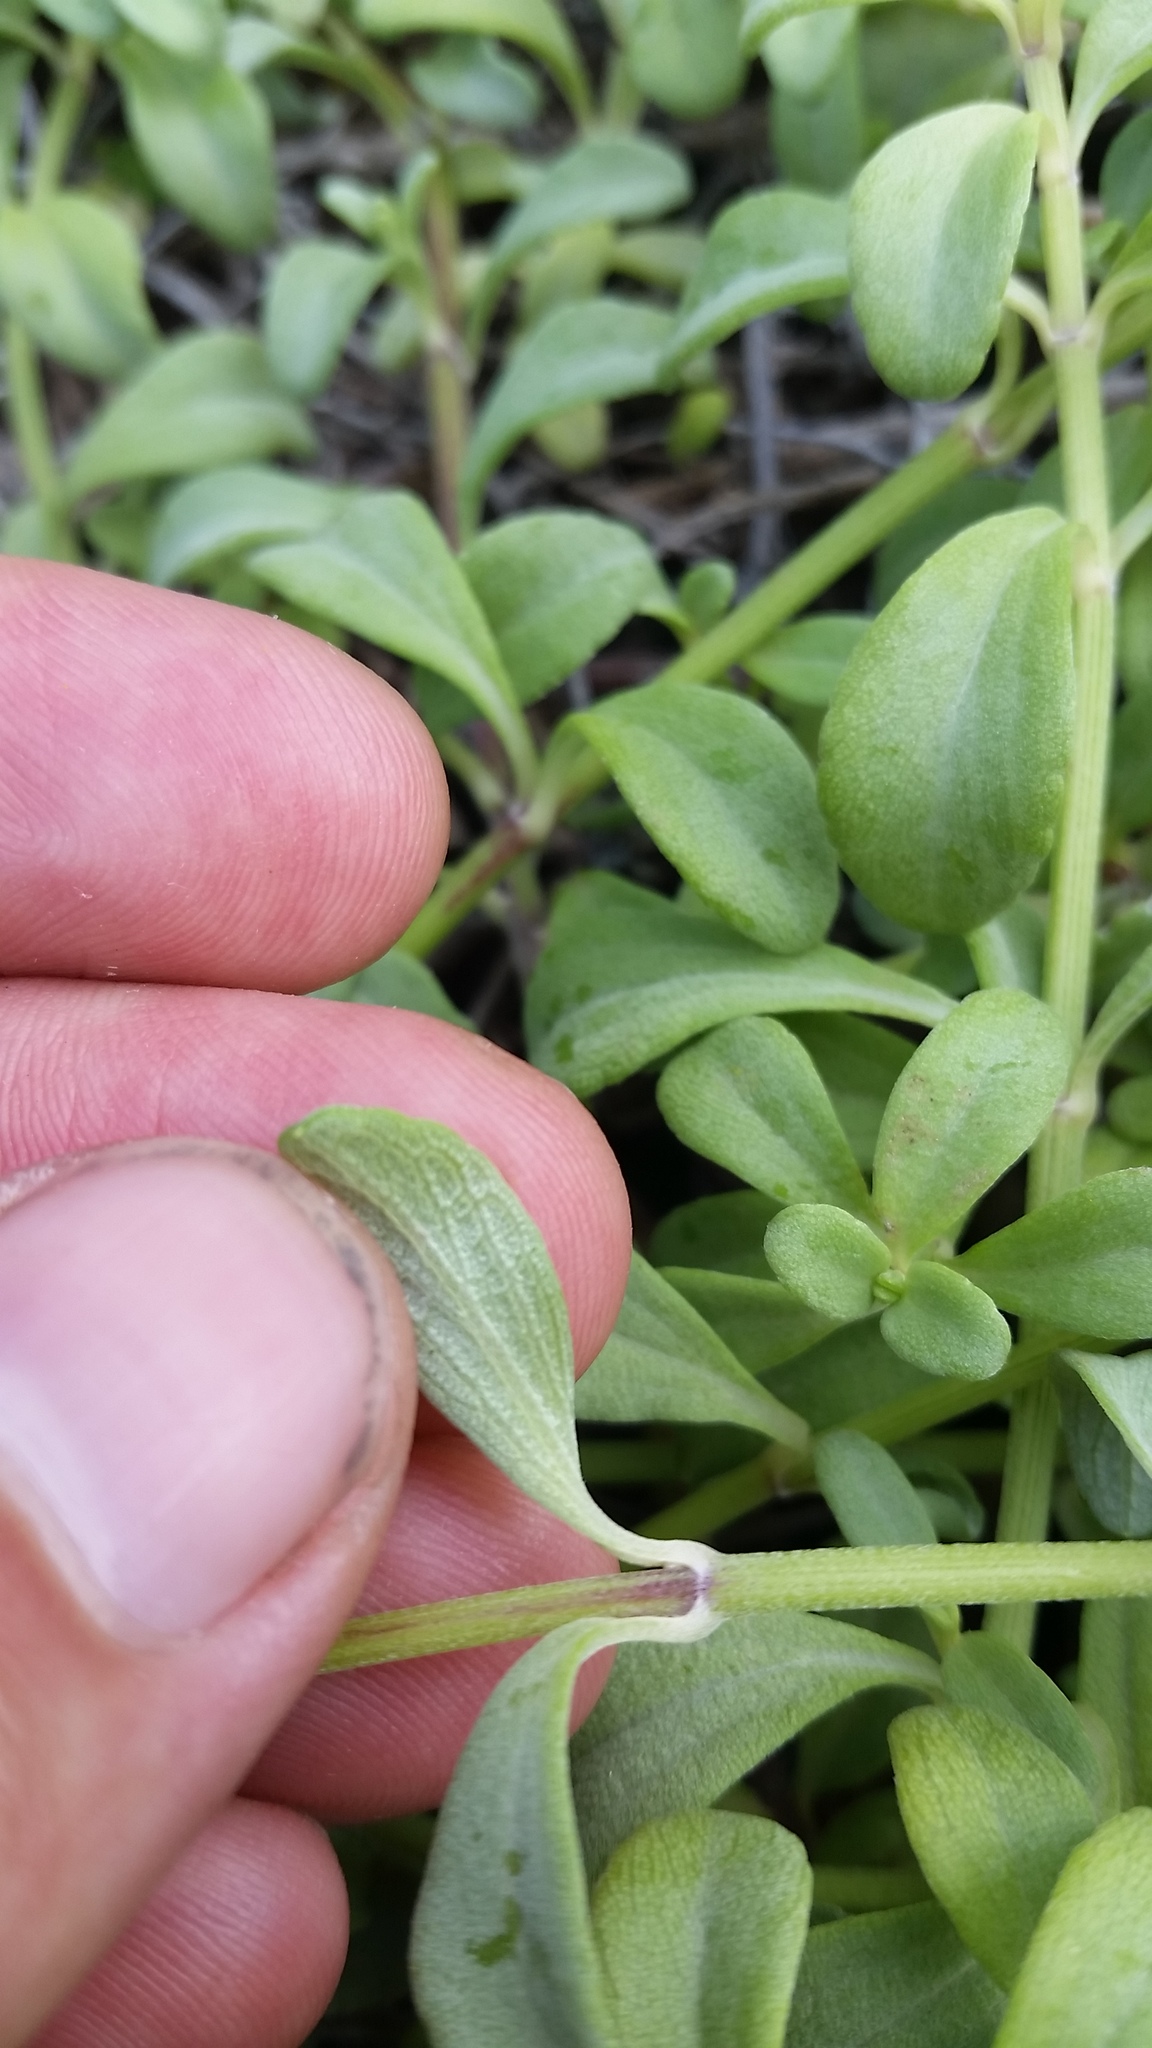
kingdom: Plantae
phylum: Tracheophyta
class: Magnoliopsida
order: Asterales
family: Asteraceae
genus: Lipochaeta
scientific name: Lipochaeta integrifolia
